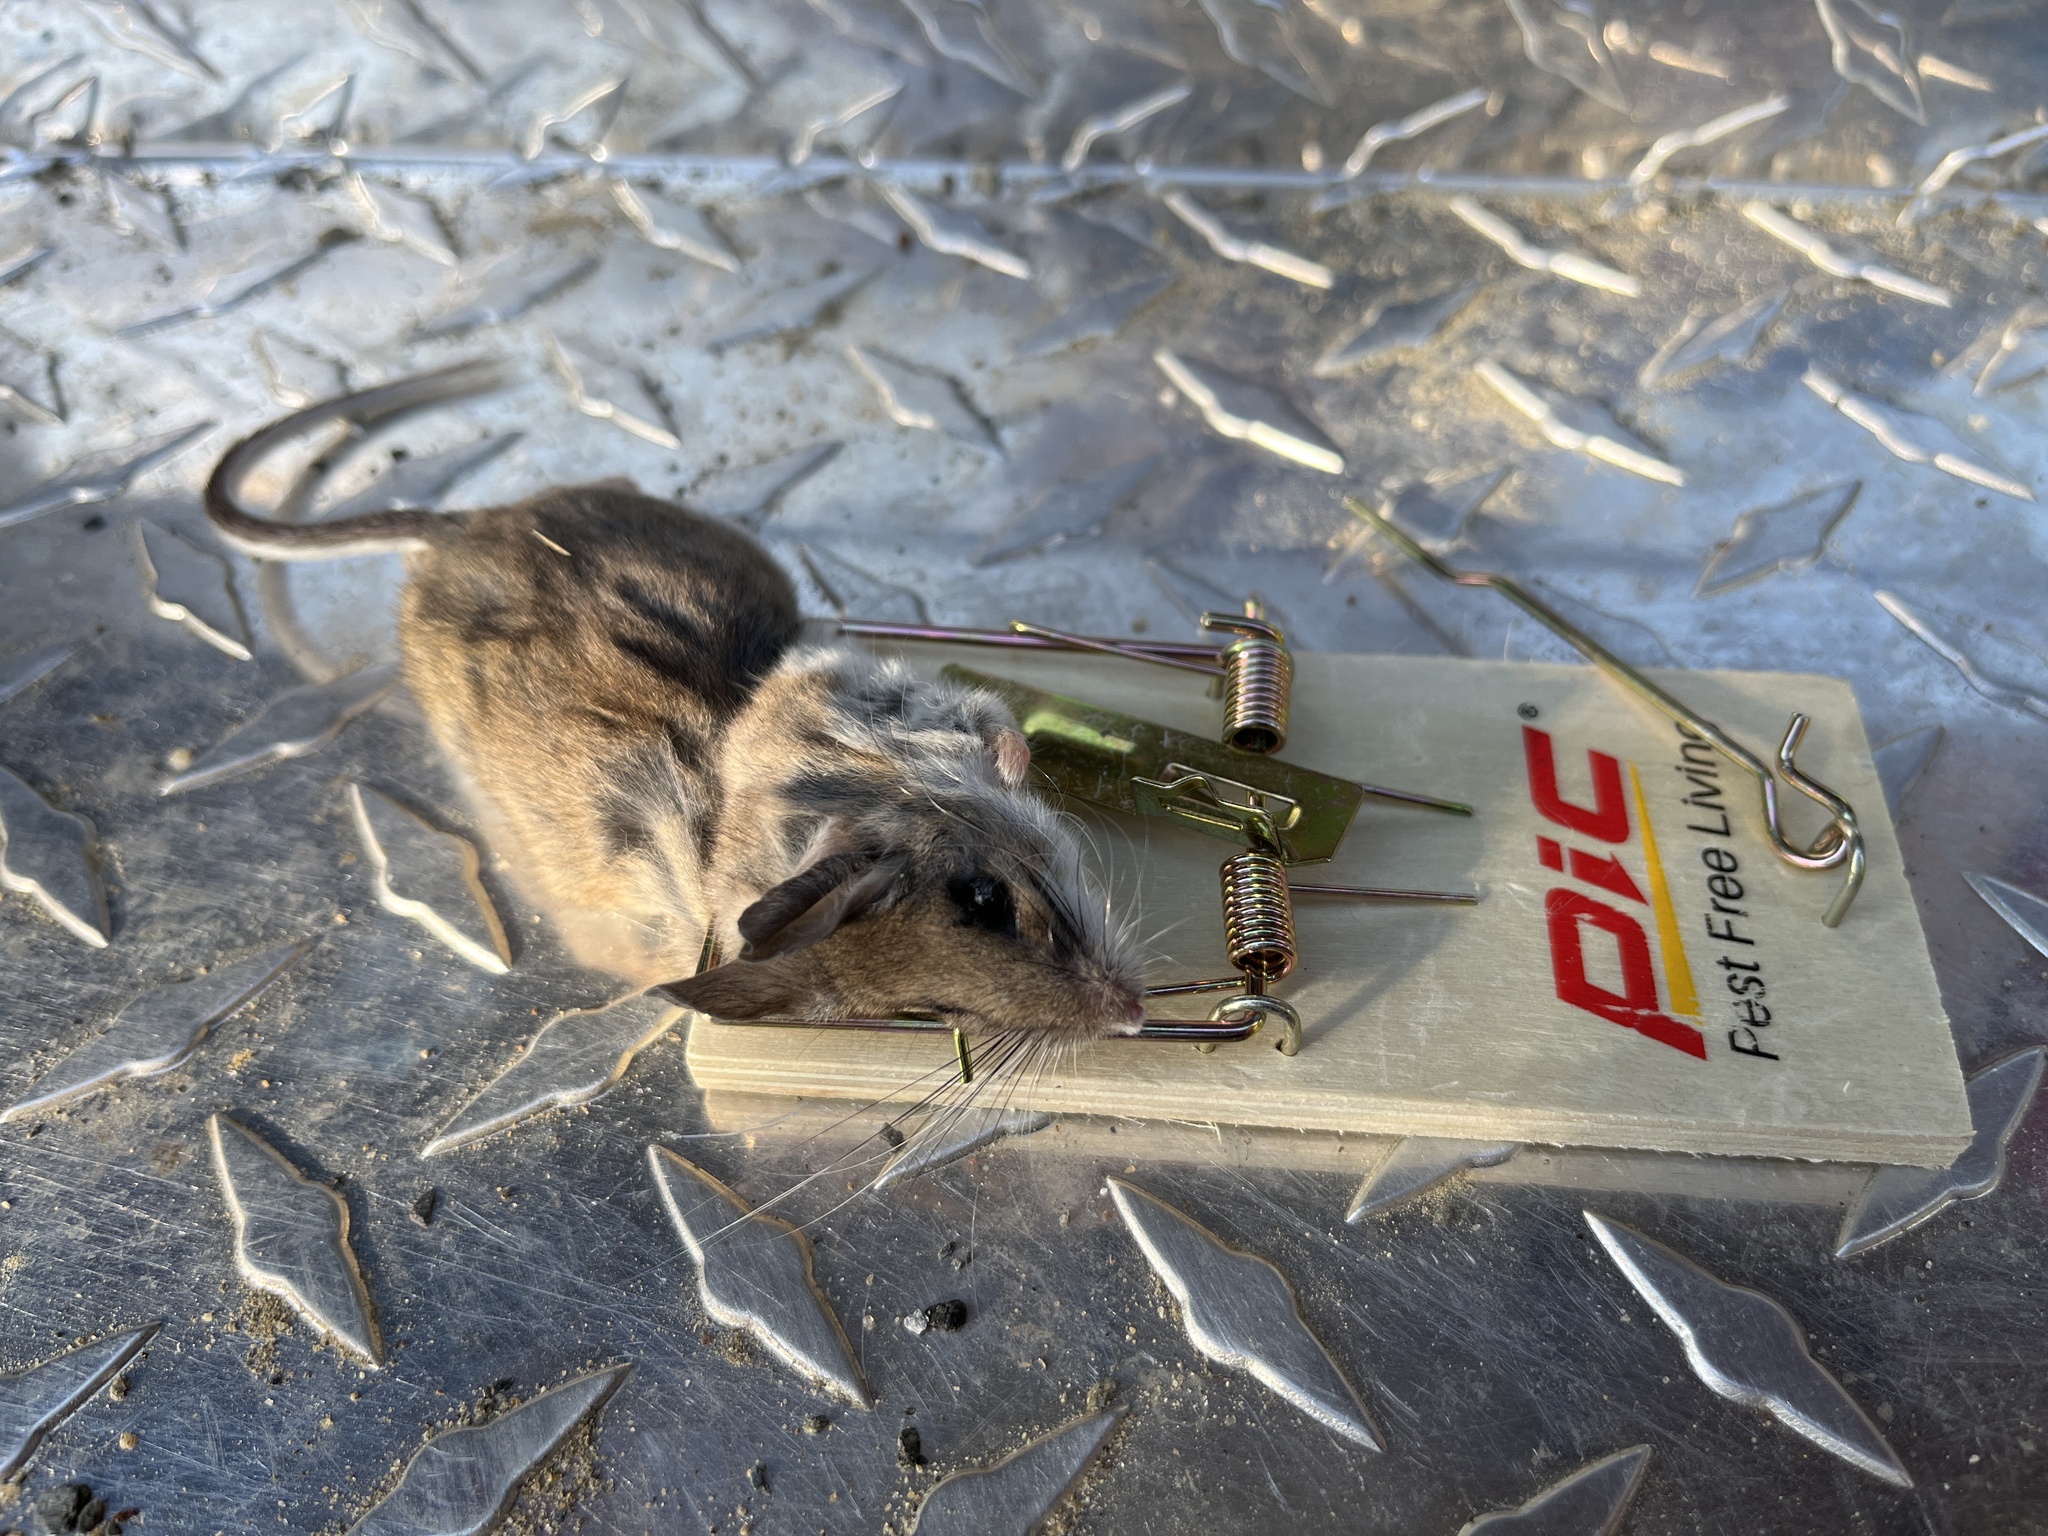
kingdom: Animalia
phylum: Chordata
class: Mammalia
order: Rodentia
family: Cricetidae
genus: Peromyscus
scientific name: Peromyscus
